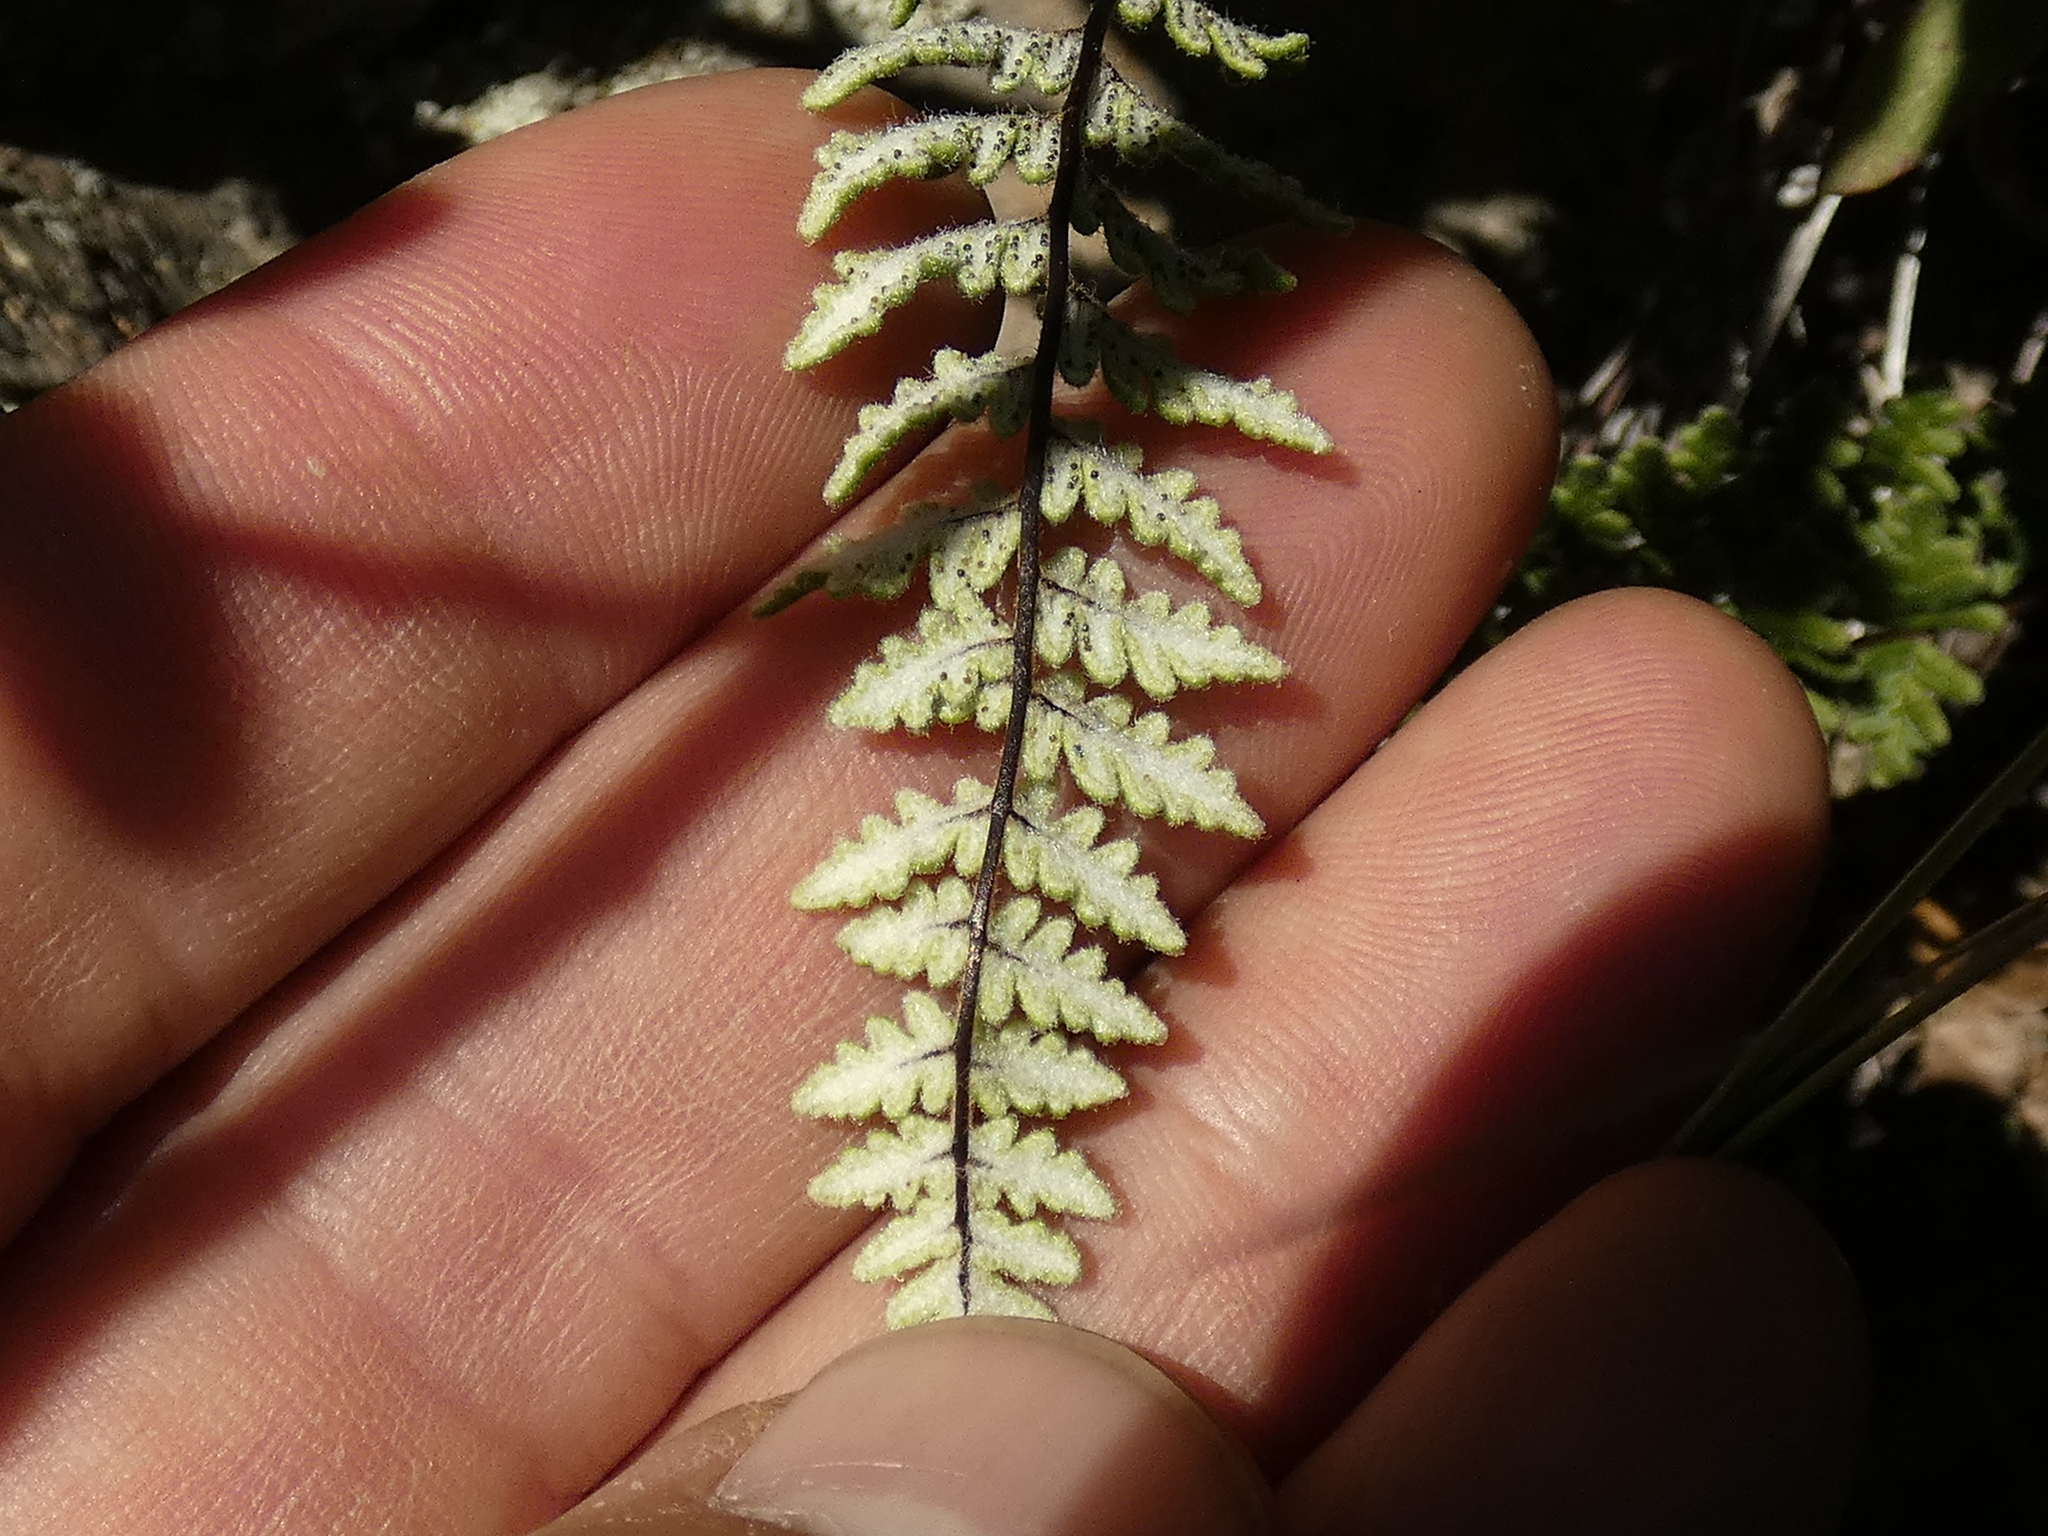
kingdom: Plantae
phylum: Tracheophyta
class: Polypodiopsida
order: Polypodiales
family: Pteridaceae
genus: Cheilanthes
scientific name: Cheilanthes hypoleuca
